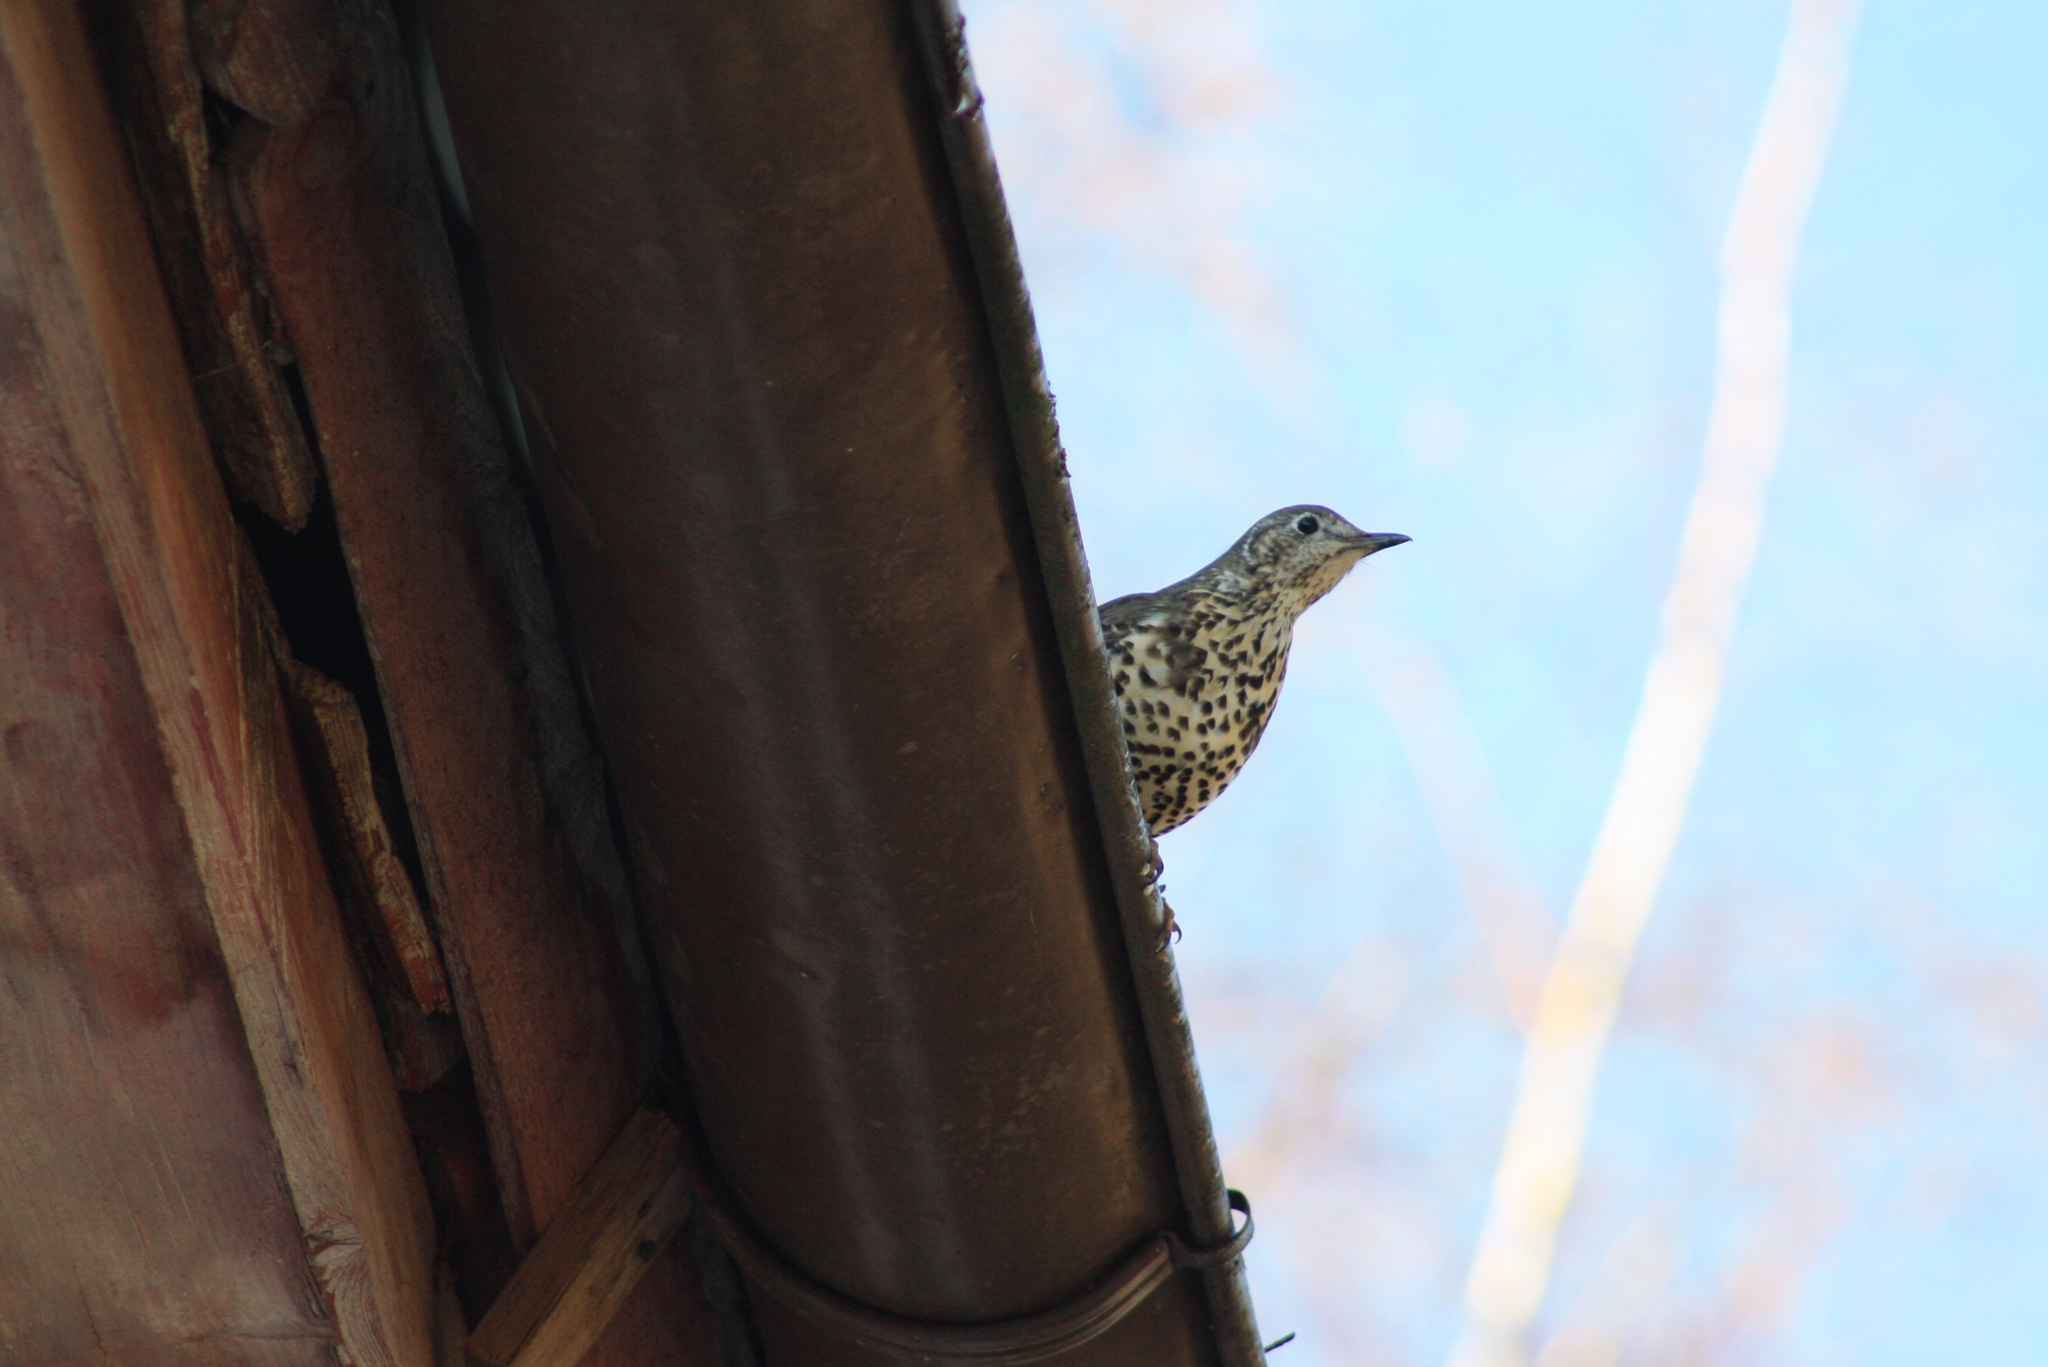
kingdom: Animalia
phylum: Chordata
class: Aves
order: Passeriformes
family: Turdidae
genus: Turdus
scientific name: Turdus viscivorus
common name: Mistle thrush
